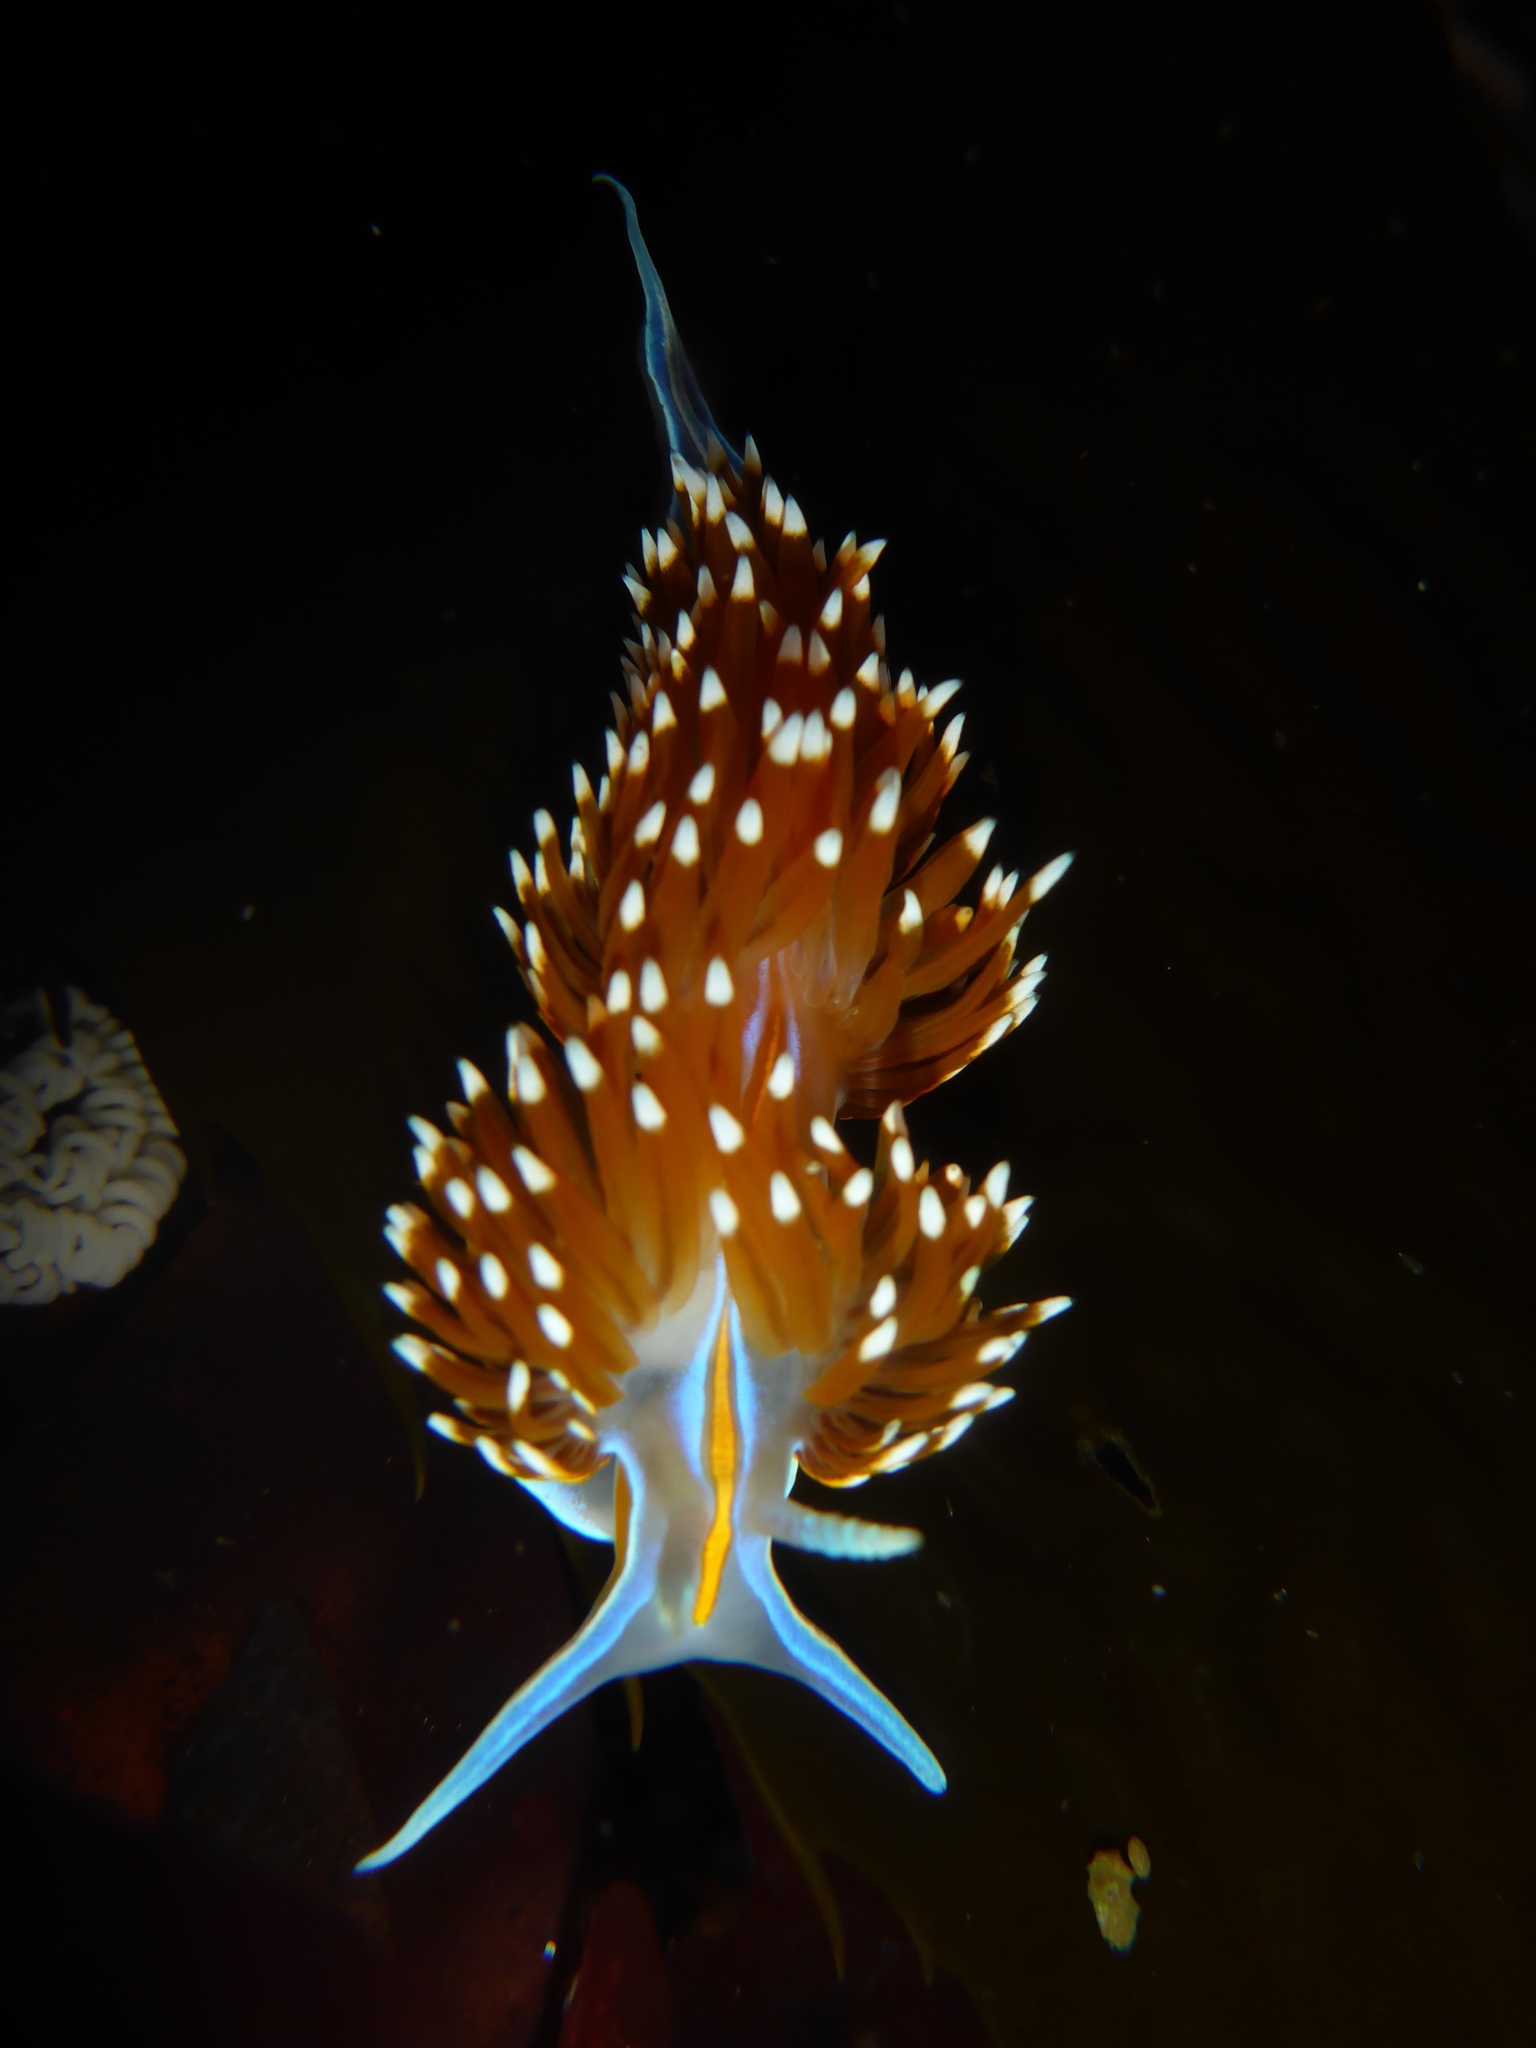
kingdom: Animalia
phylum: Mollusca
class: Gastropoda
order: Nudibranchia
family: Myrrhinidae
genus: Hermissenda
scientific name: Hermissenda opalescens
